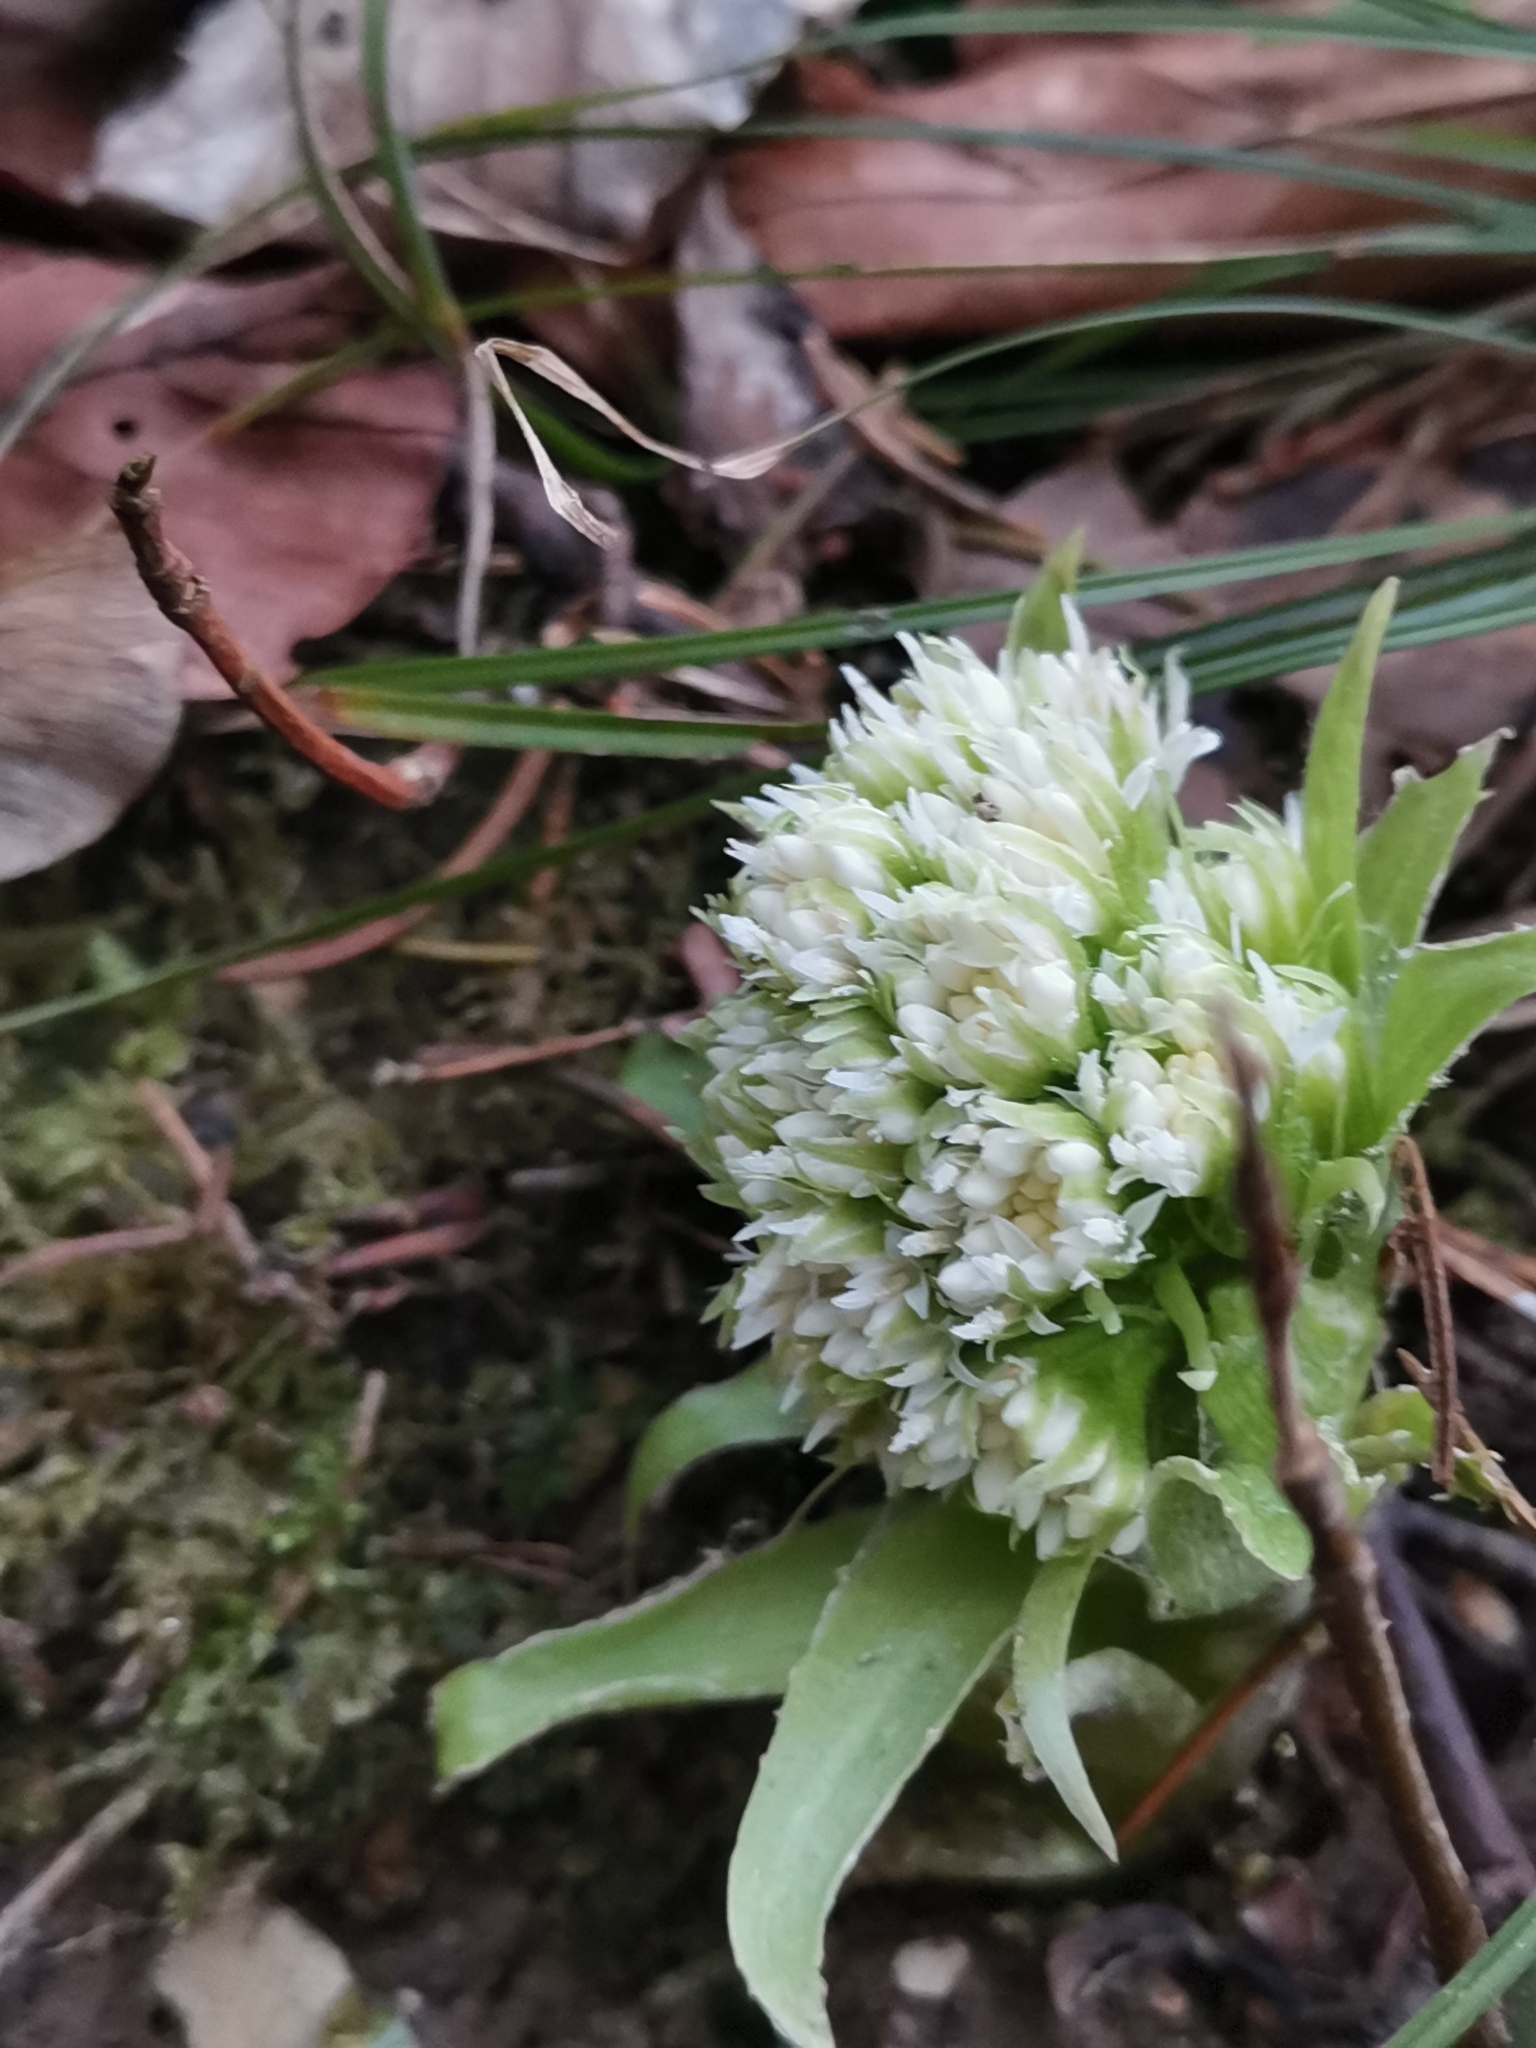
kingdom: Plantae
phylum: Tracheophyta
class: Magnoliopsida
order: Asterales
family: Asteraceae
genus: Petasites
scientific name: Petasites albus
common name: White butterbur
